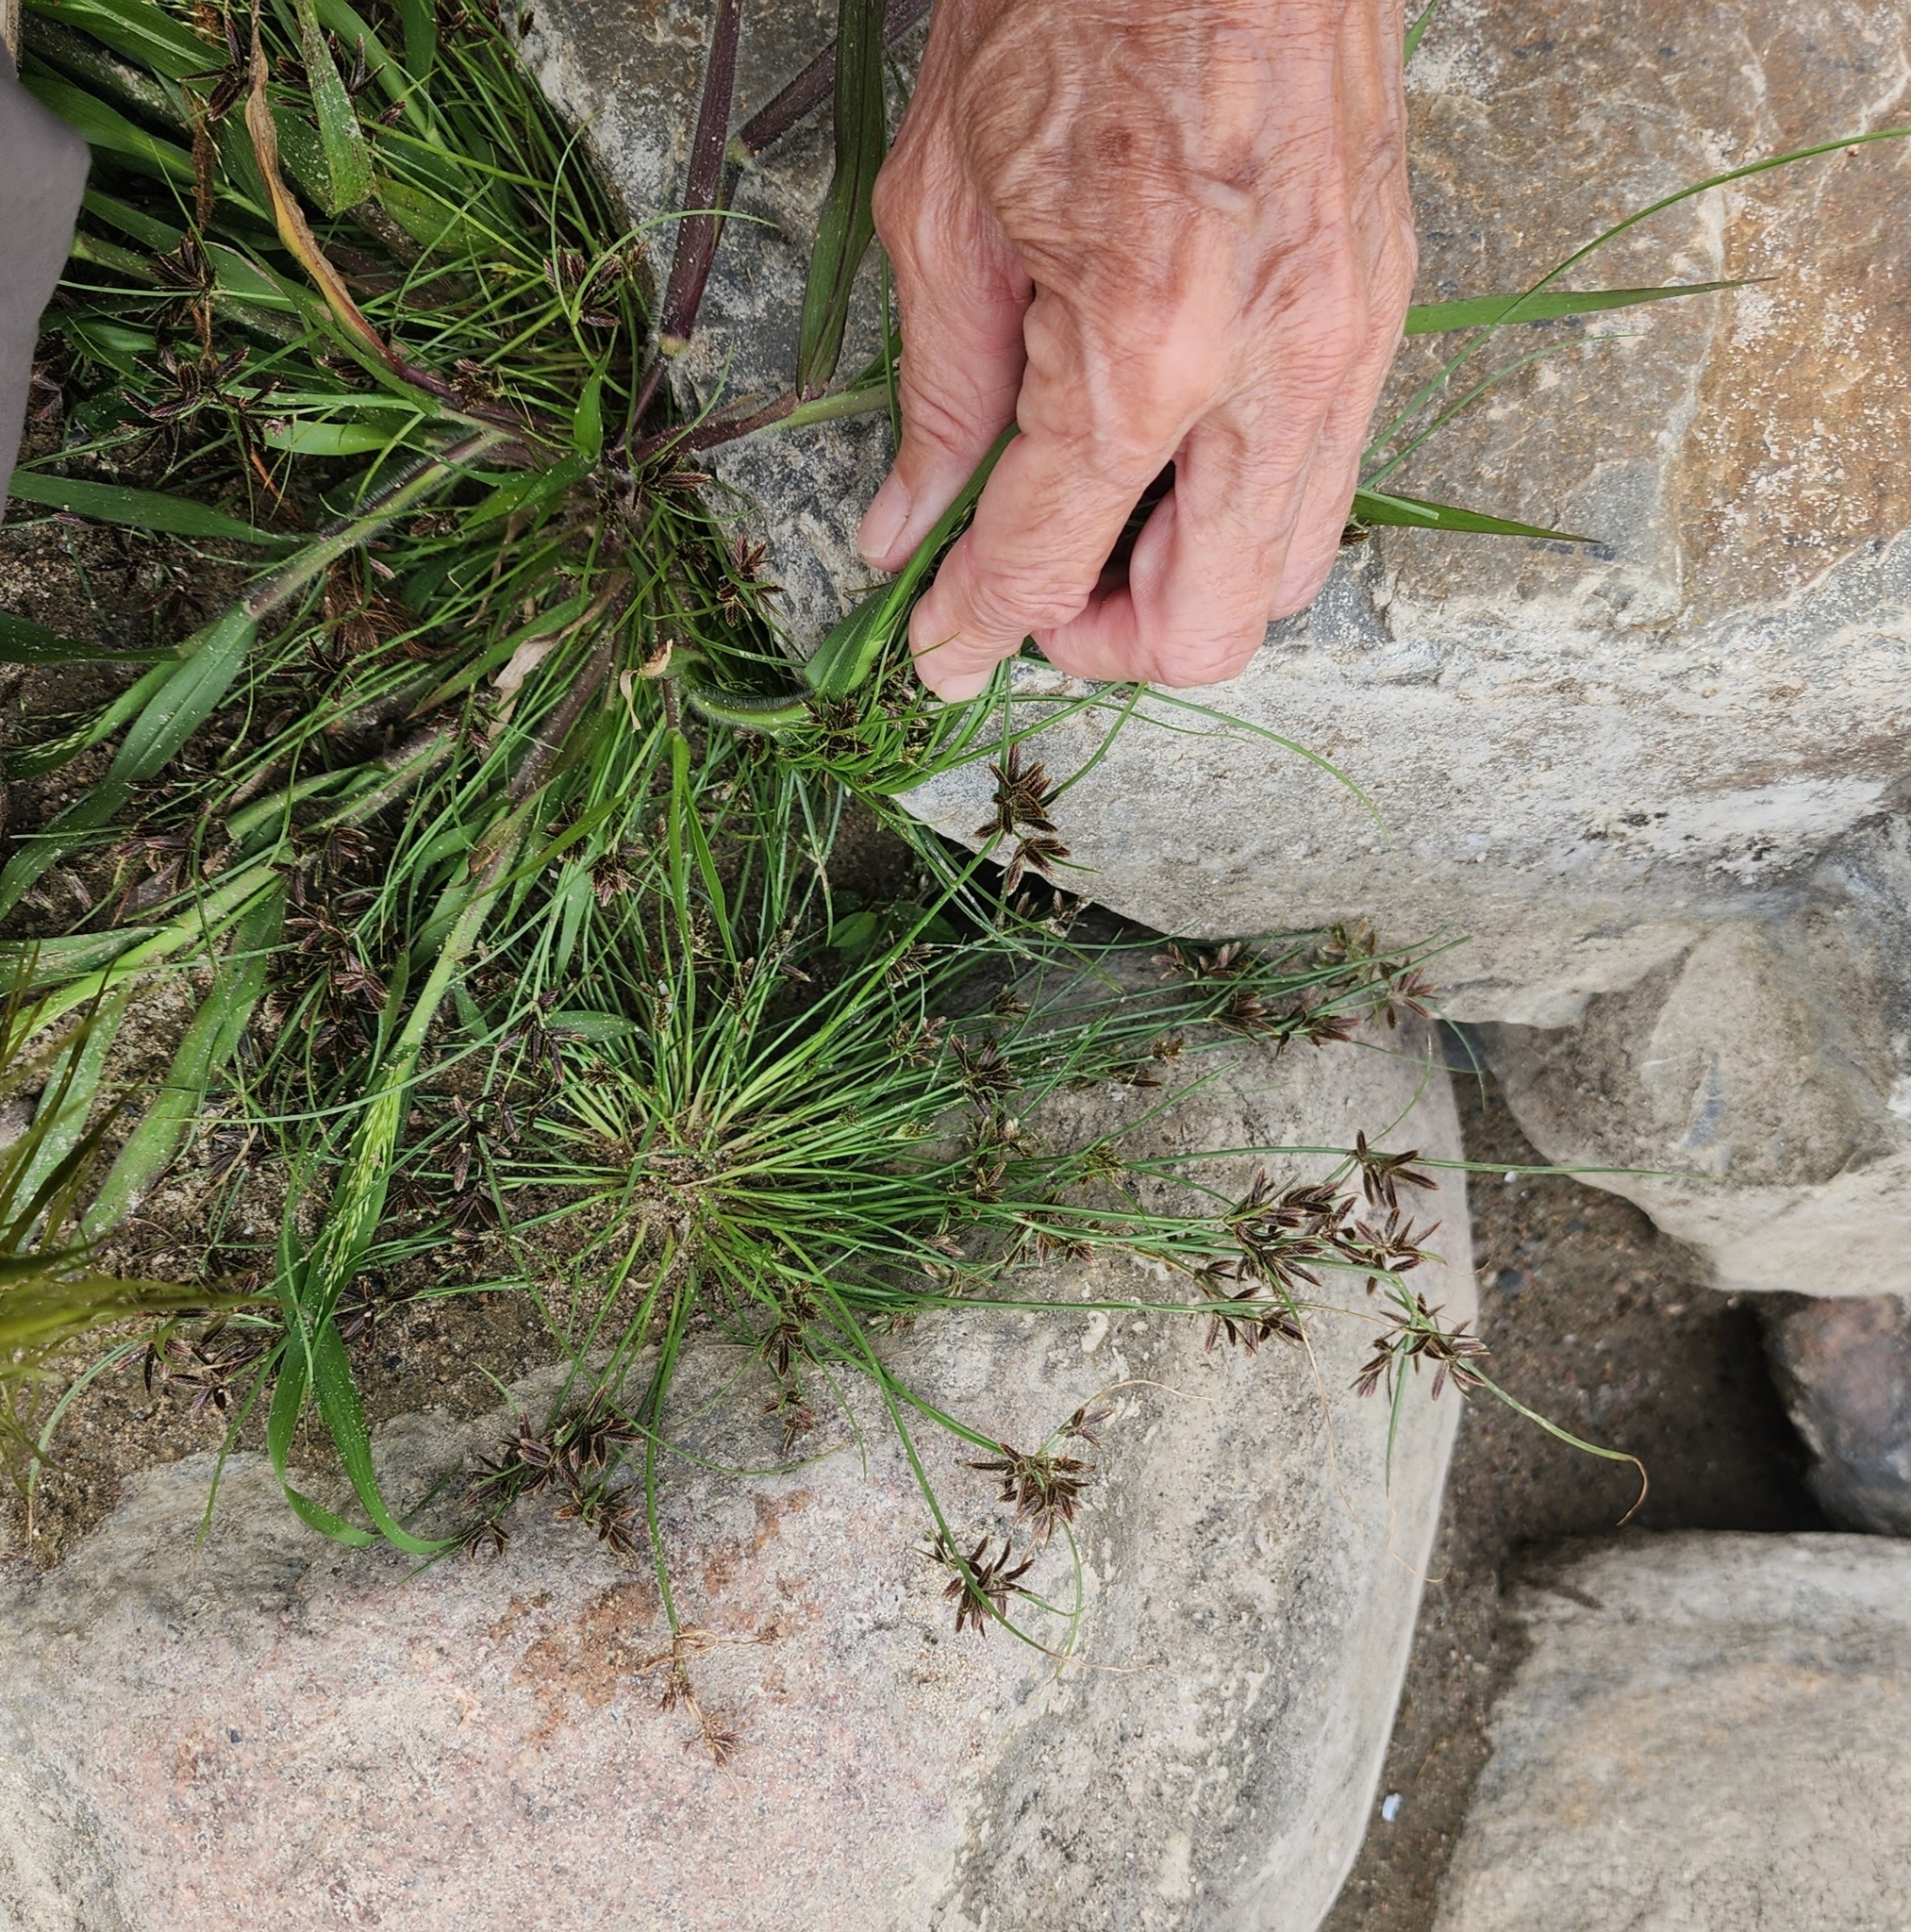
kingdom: Plantae
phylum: Tracheophyta
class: Liliopsida
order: Poales
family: Cyperaceae
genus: Cyperus
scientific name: Cyperus bipartitus
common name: Brook flatsedge
